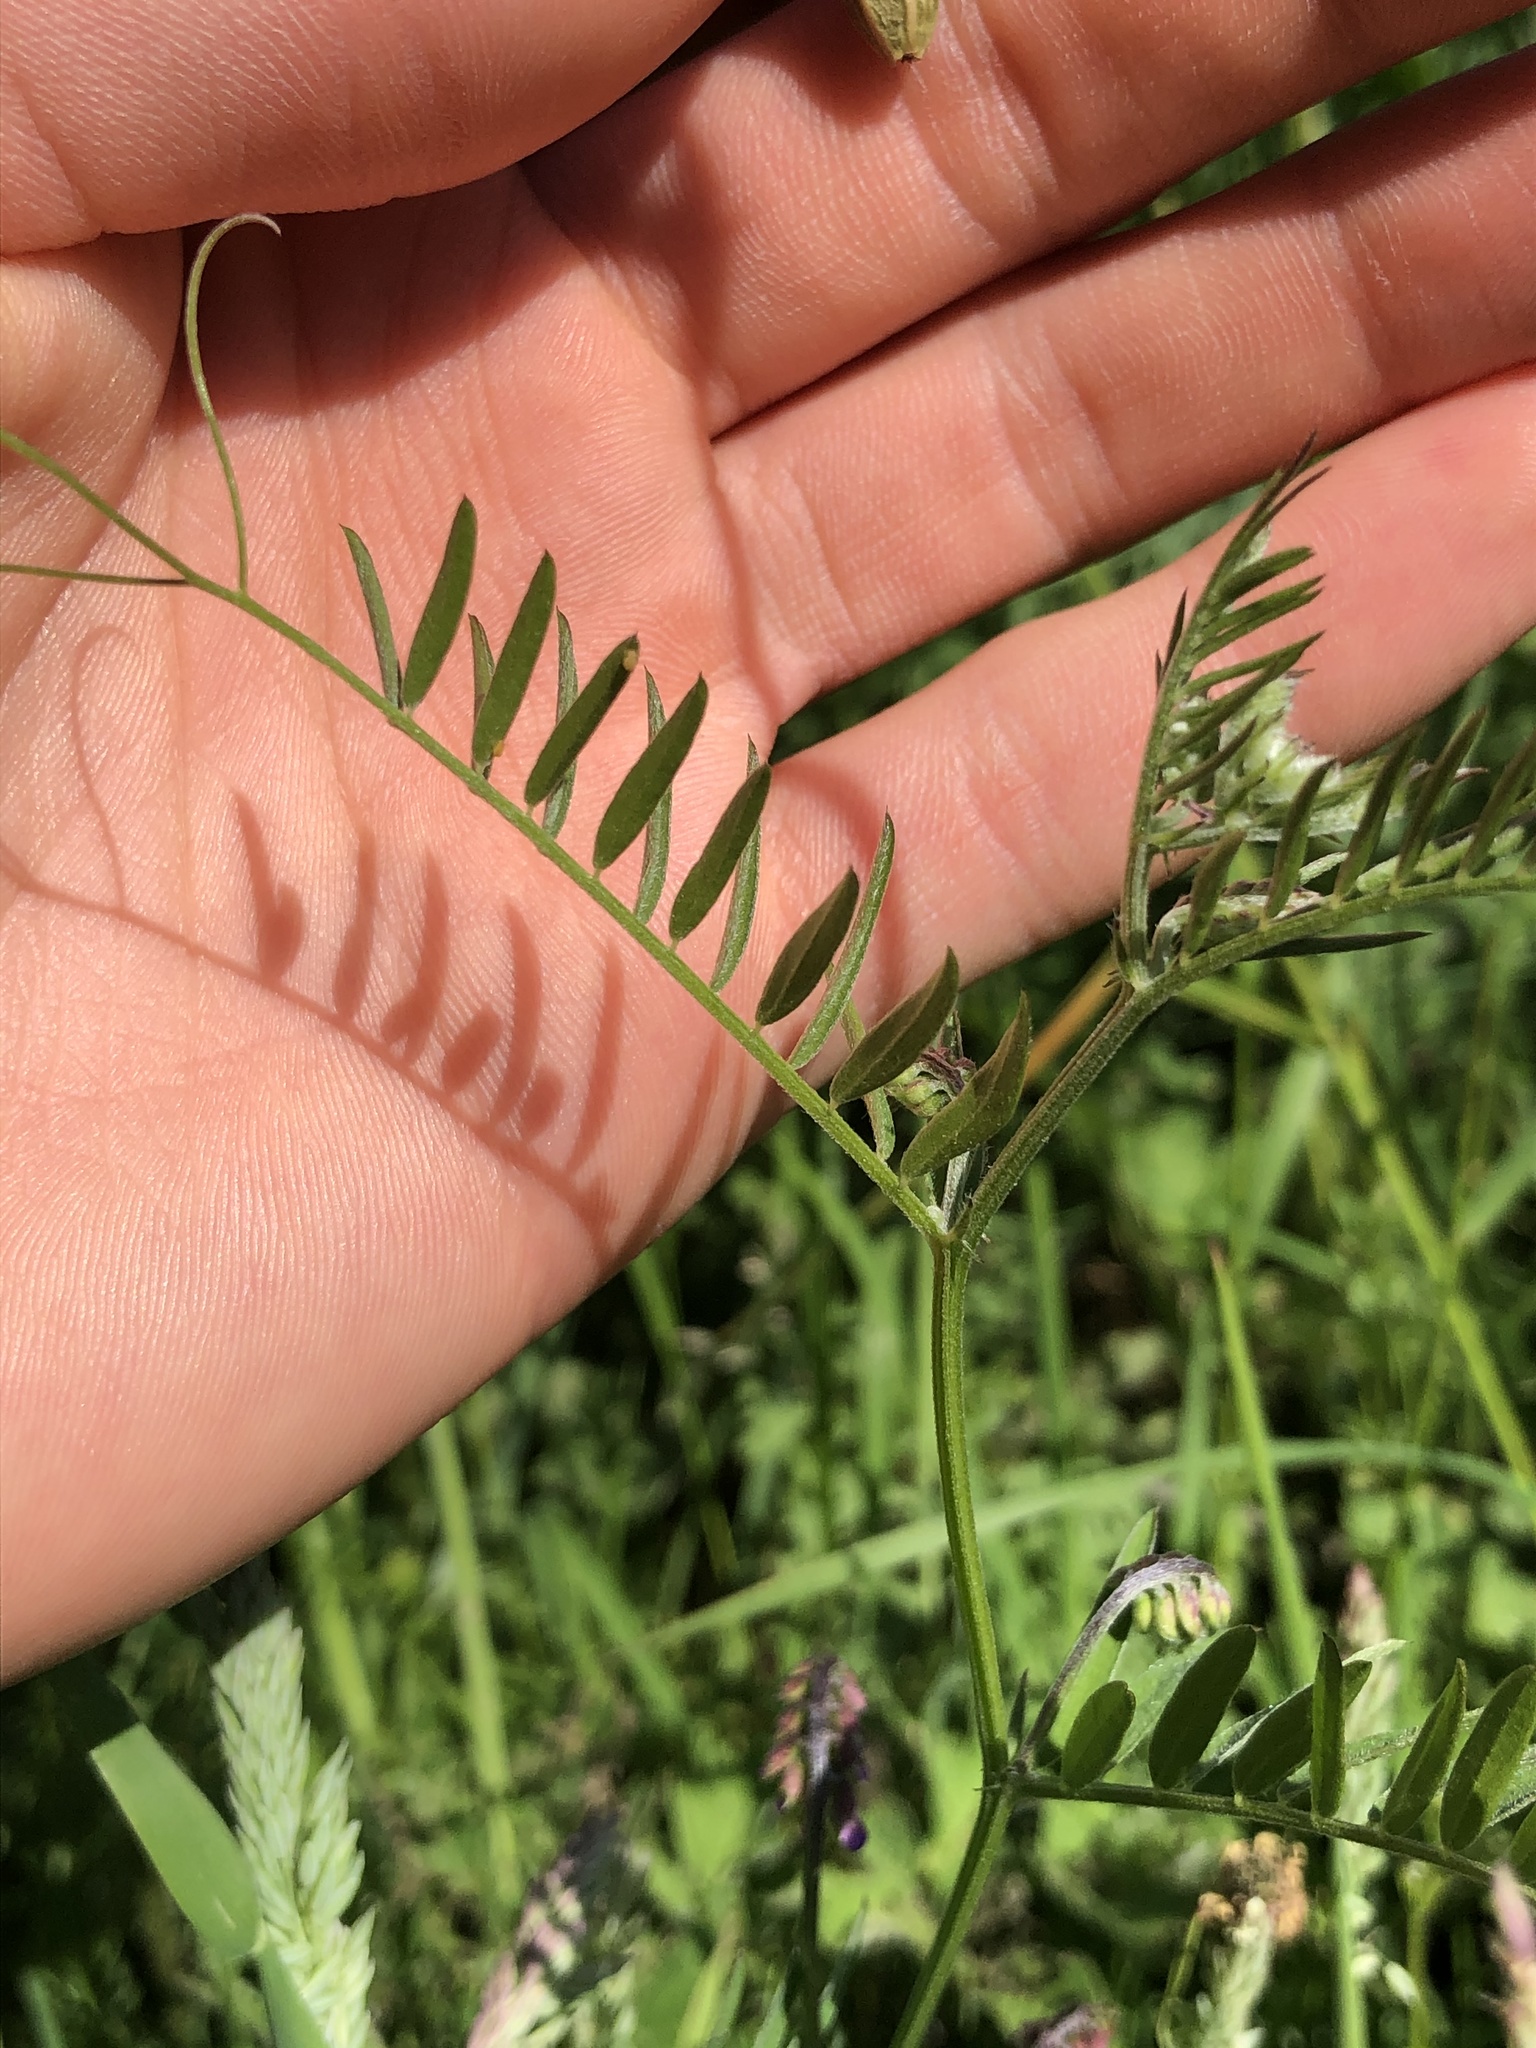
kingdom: Plantae
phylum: Tracheophyta
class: Magnoliopsida
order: Fabales
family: Fabaceae
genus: Vicia
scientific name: Vicia cracca
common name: Bird vetch
